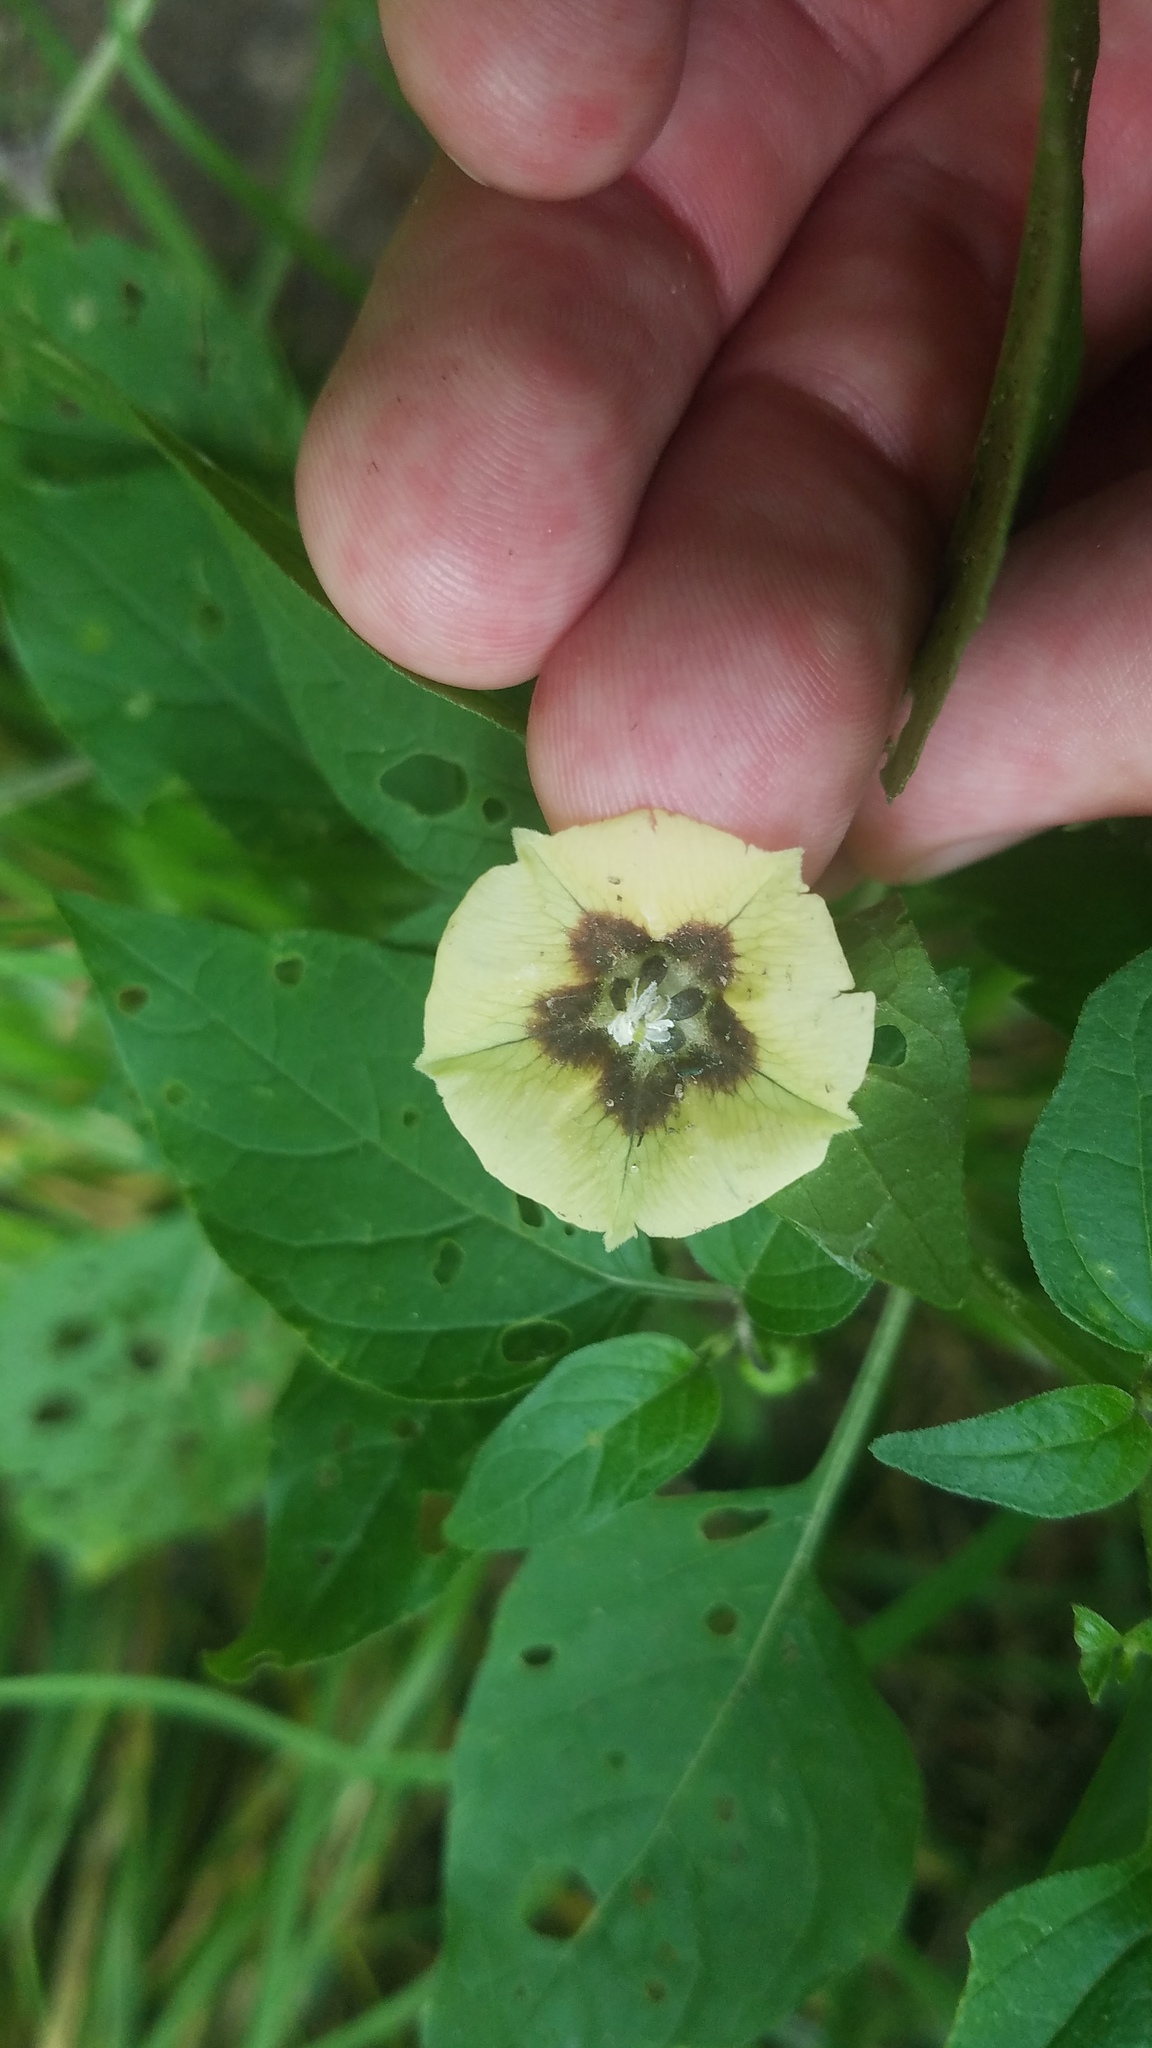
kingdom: Plantae
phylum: Tracheophyta
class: Magnoliopsida
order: Solanales
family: Solanaceae
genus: Physalis
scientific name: Physalis longifolia
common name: Common ground-cherry
